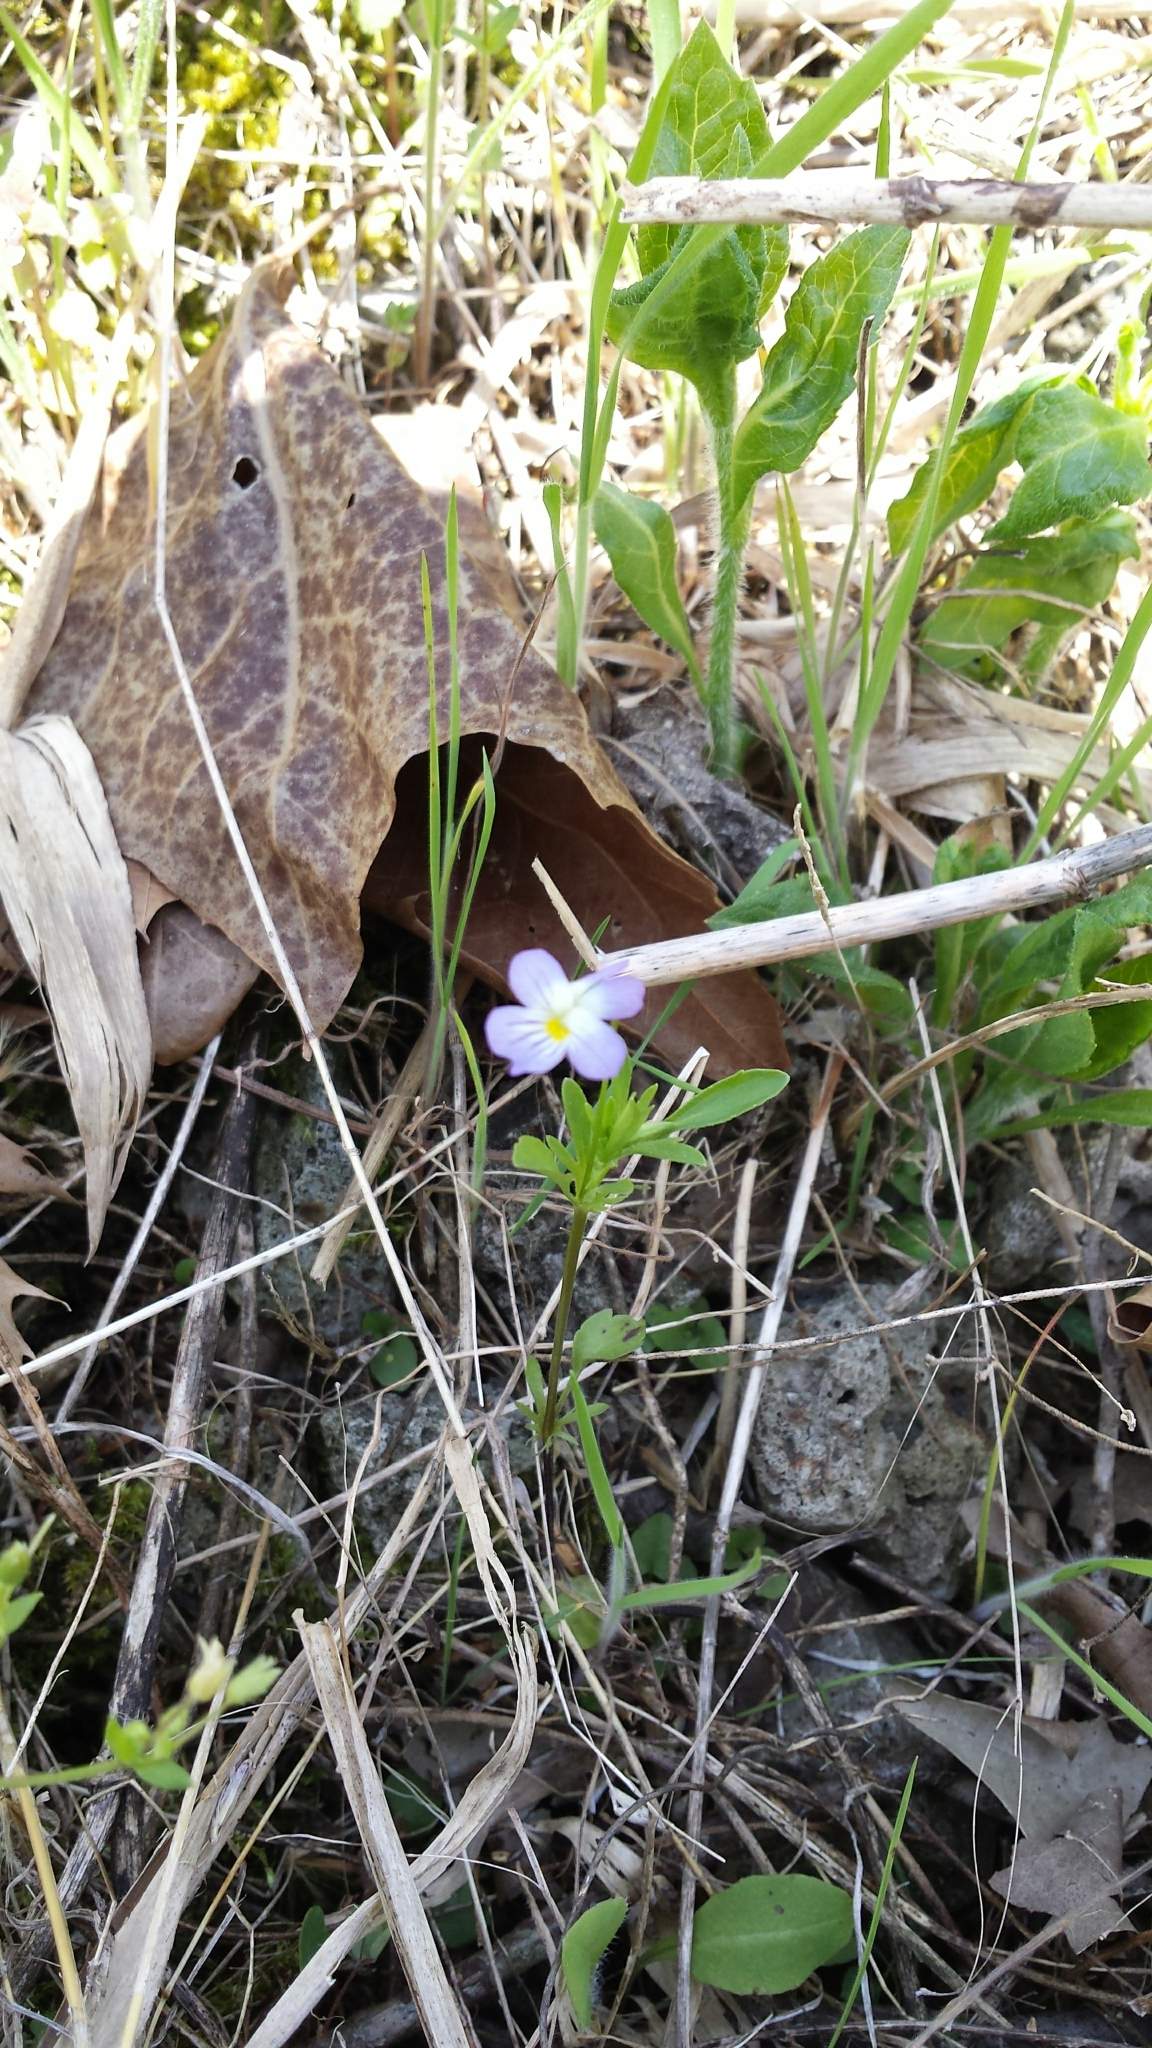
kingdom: Plantae
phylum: Tracheophyta
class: Magnoliopsida
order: Malpighiales
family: Violaceae
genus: Viola
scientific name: Viola rafinesquei
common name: American field pansy
